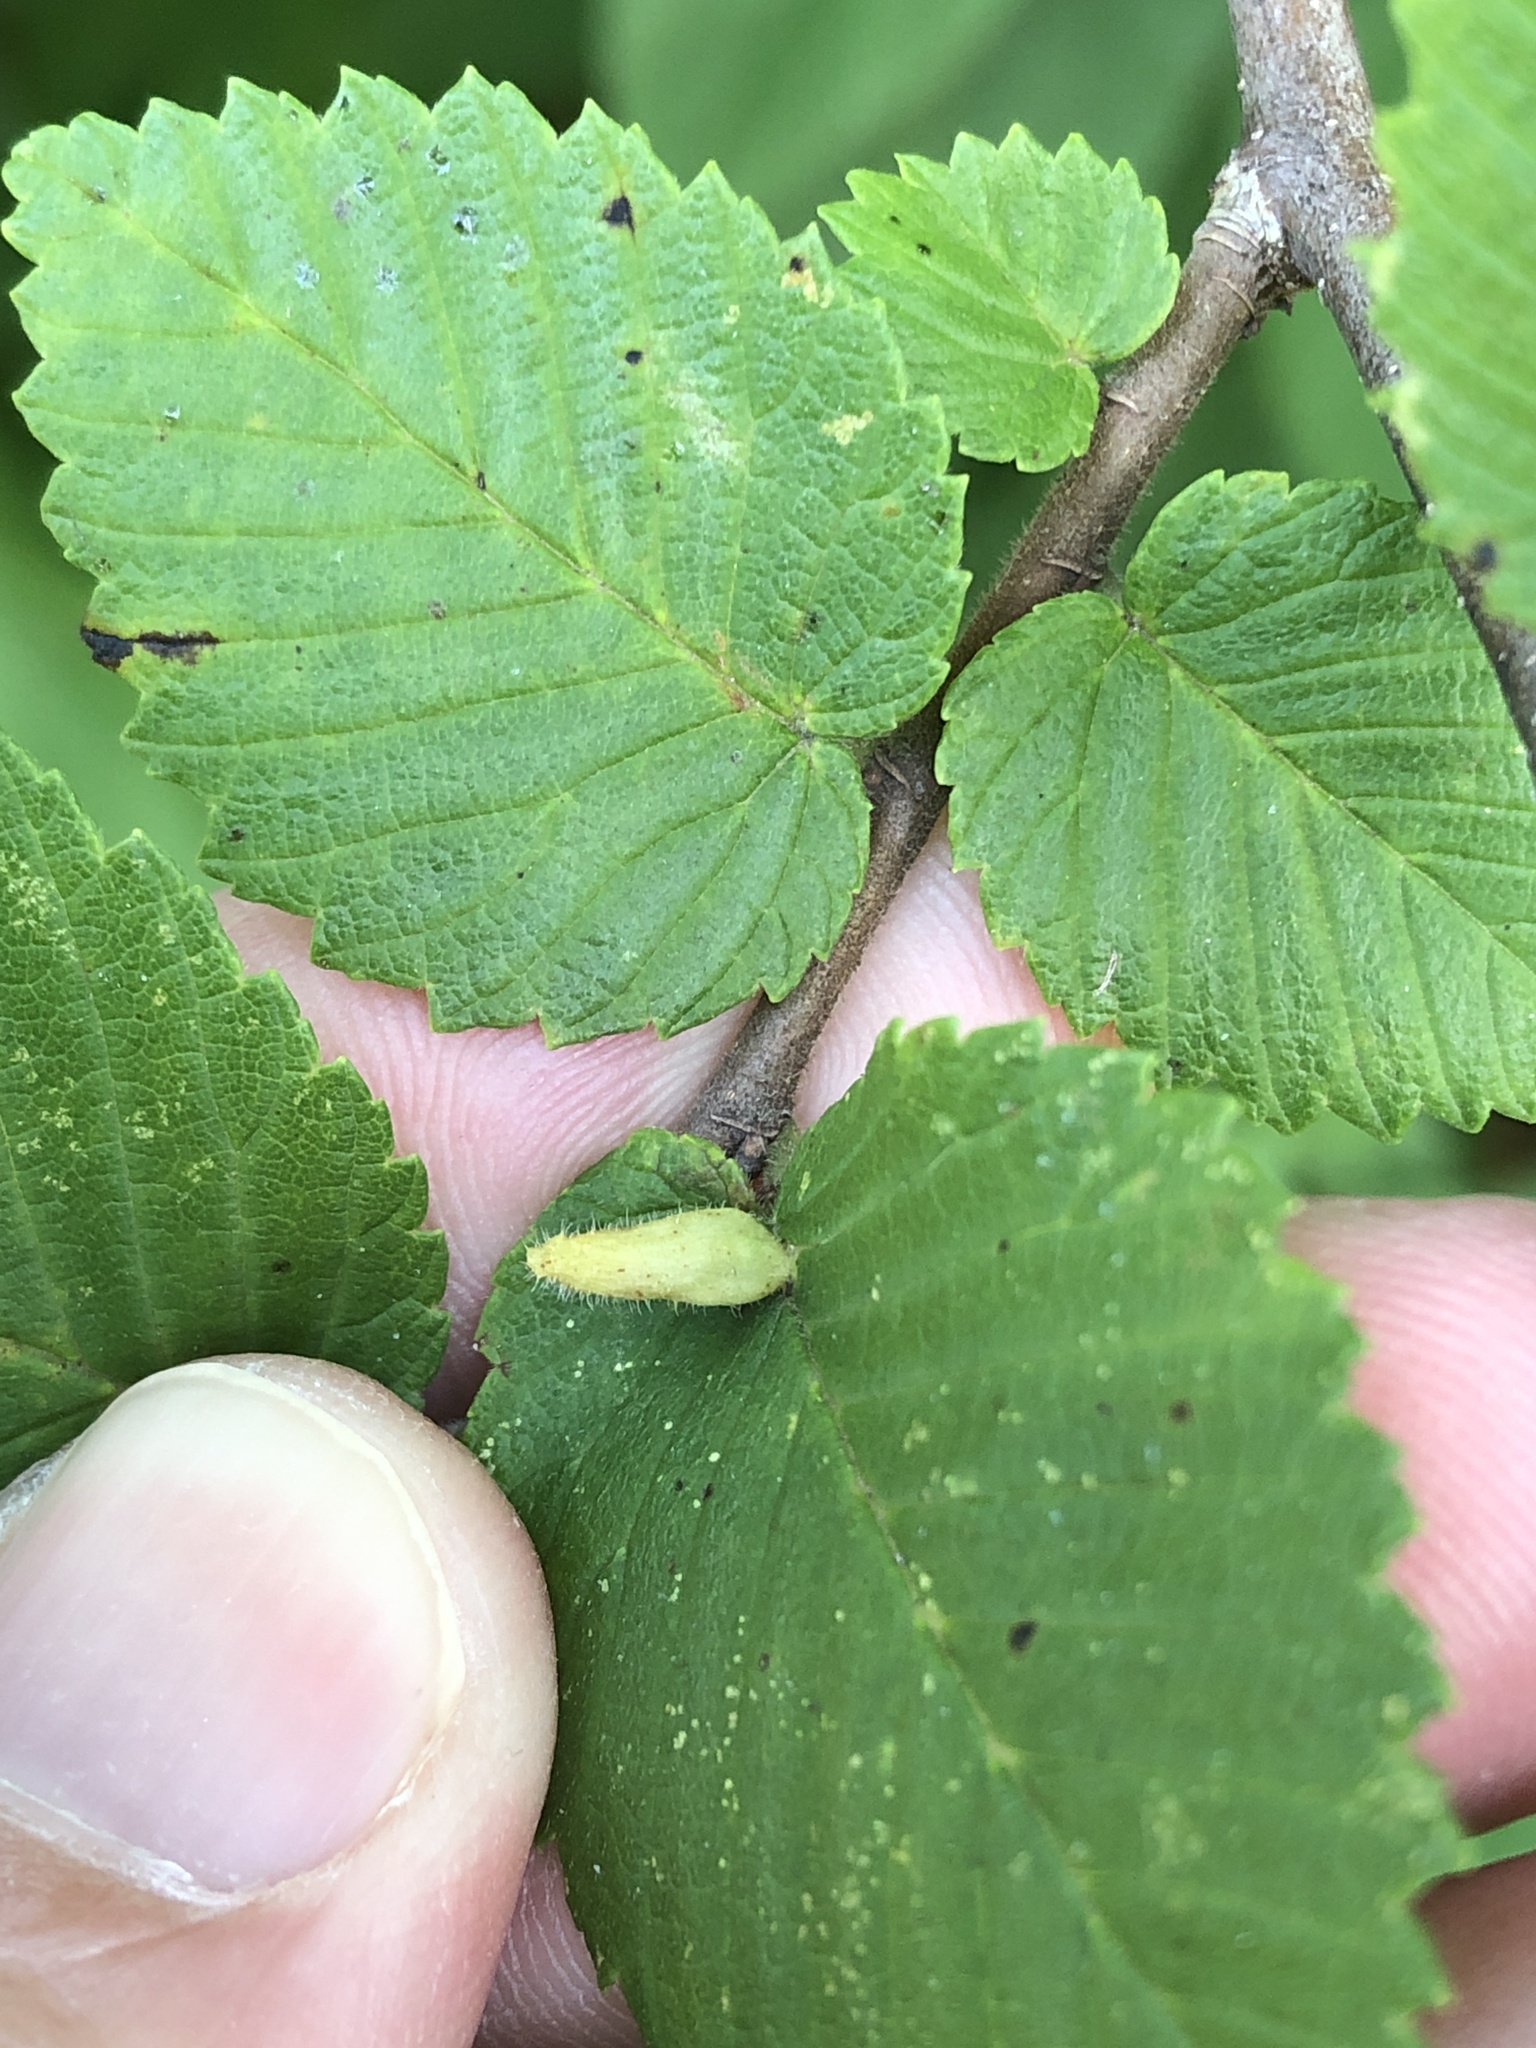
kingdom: Animalia
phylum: Arthropoda
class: Arachnida
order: Trombidiformes
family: Eriophyidae
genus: Aceria
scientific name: Aceria
